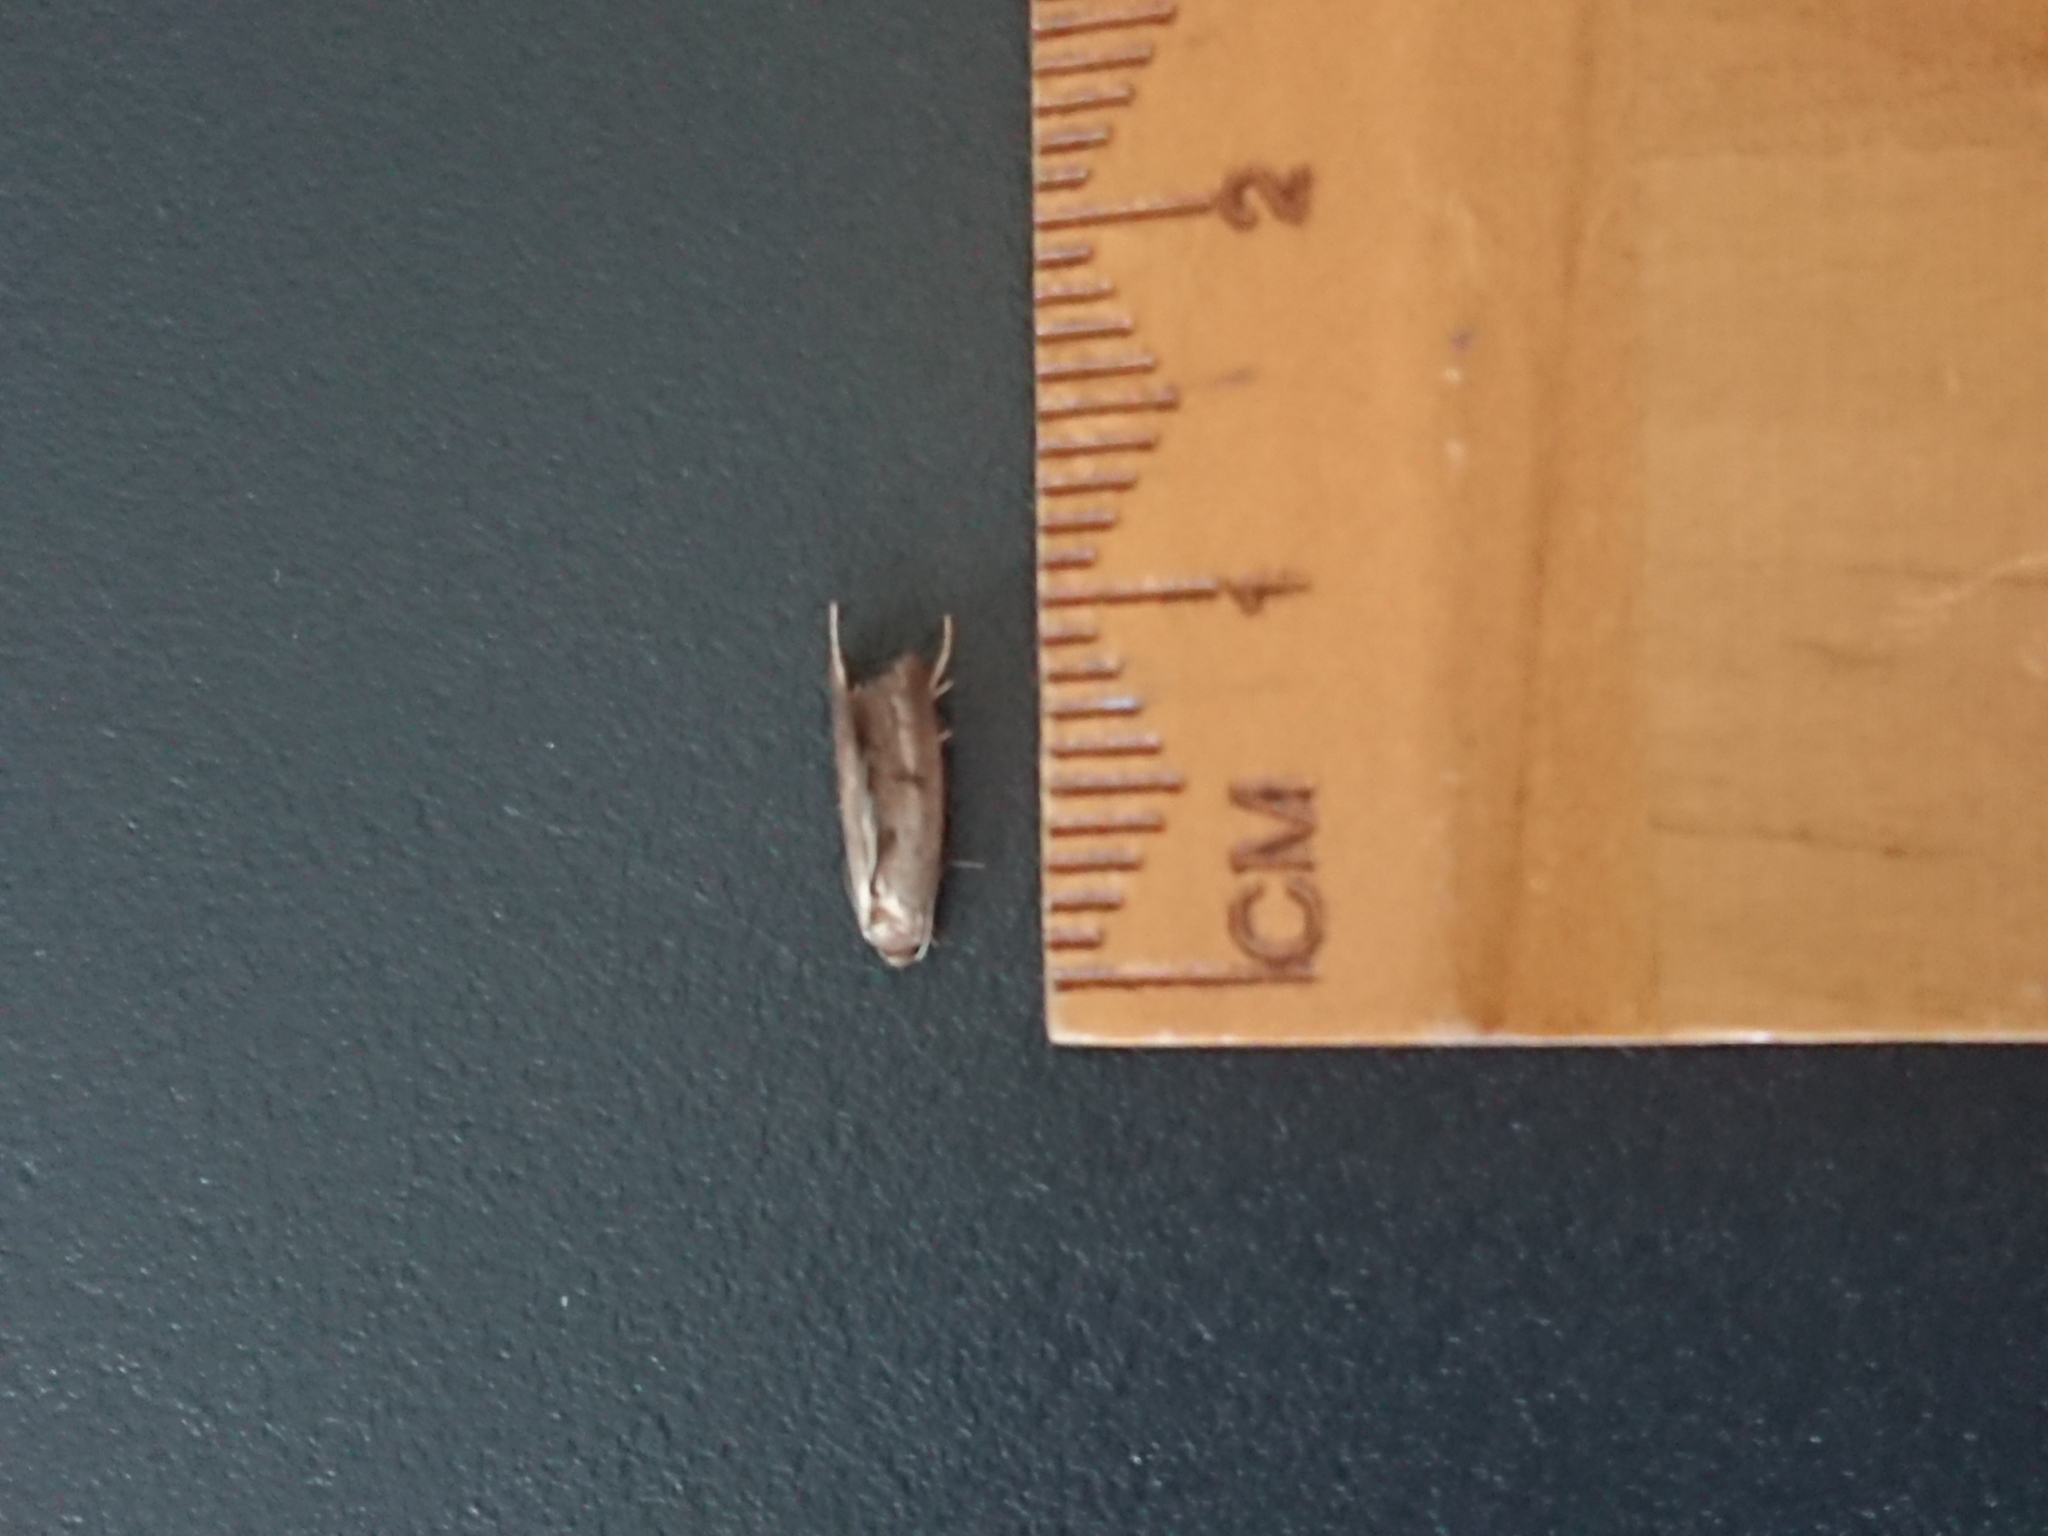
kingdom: Animalia
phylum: Arthropoda
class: Insecta
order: Lepidoptera
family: Oecophoridae
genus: Tachystola
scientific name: Tachystola acroxantha
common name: Ruddy streak
